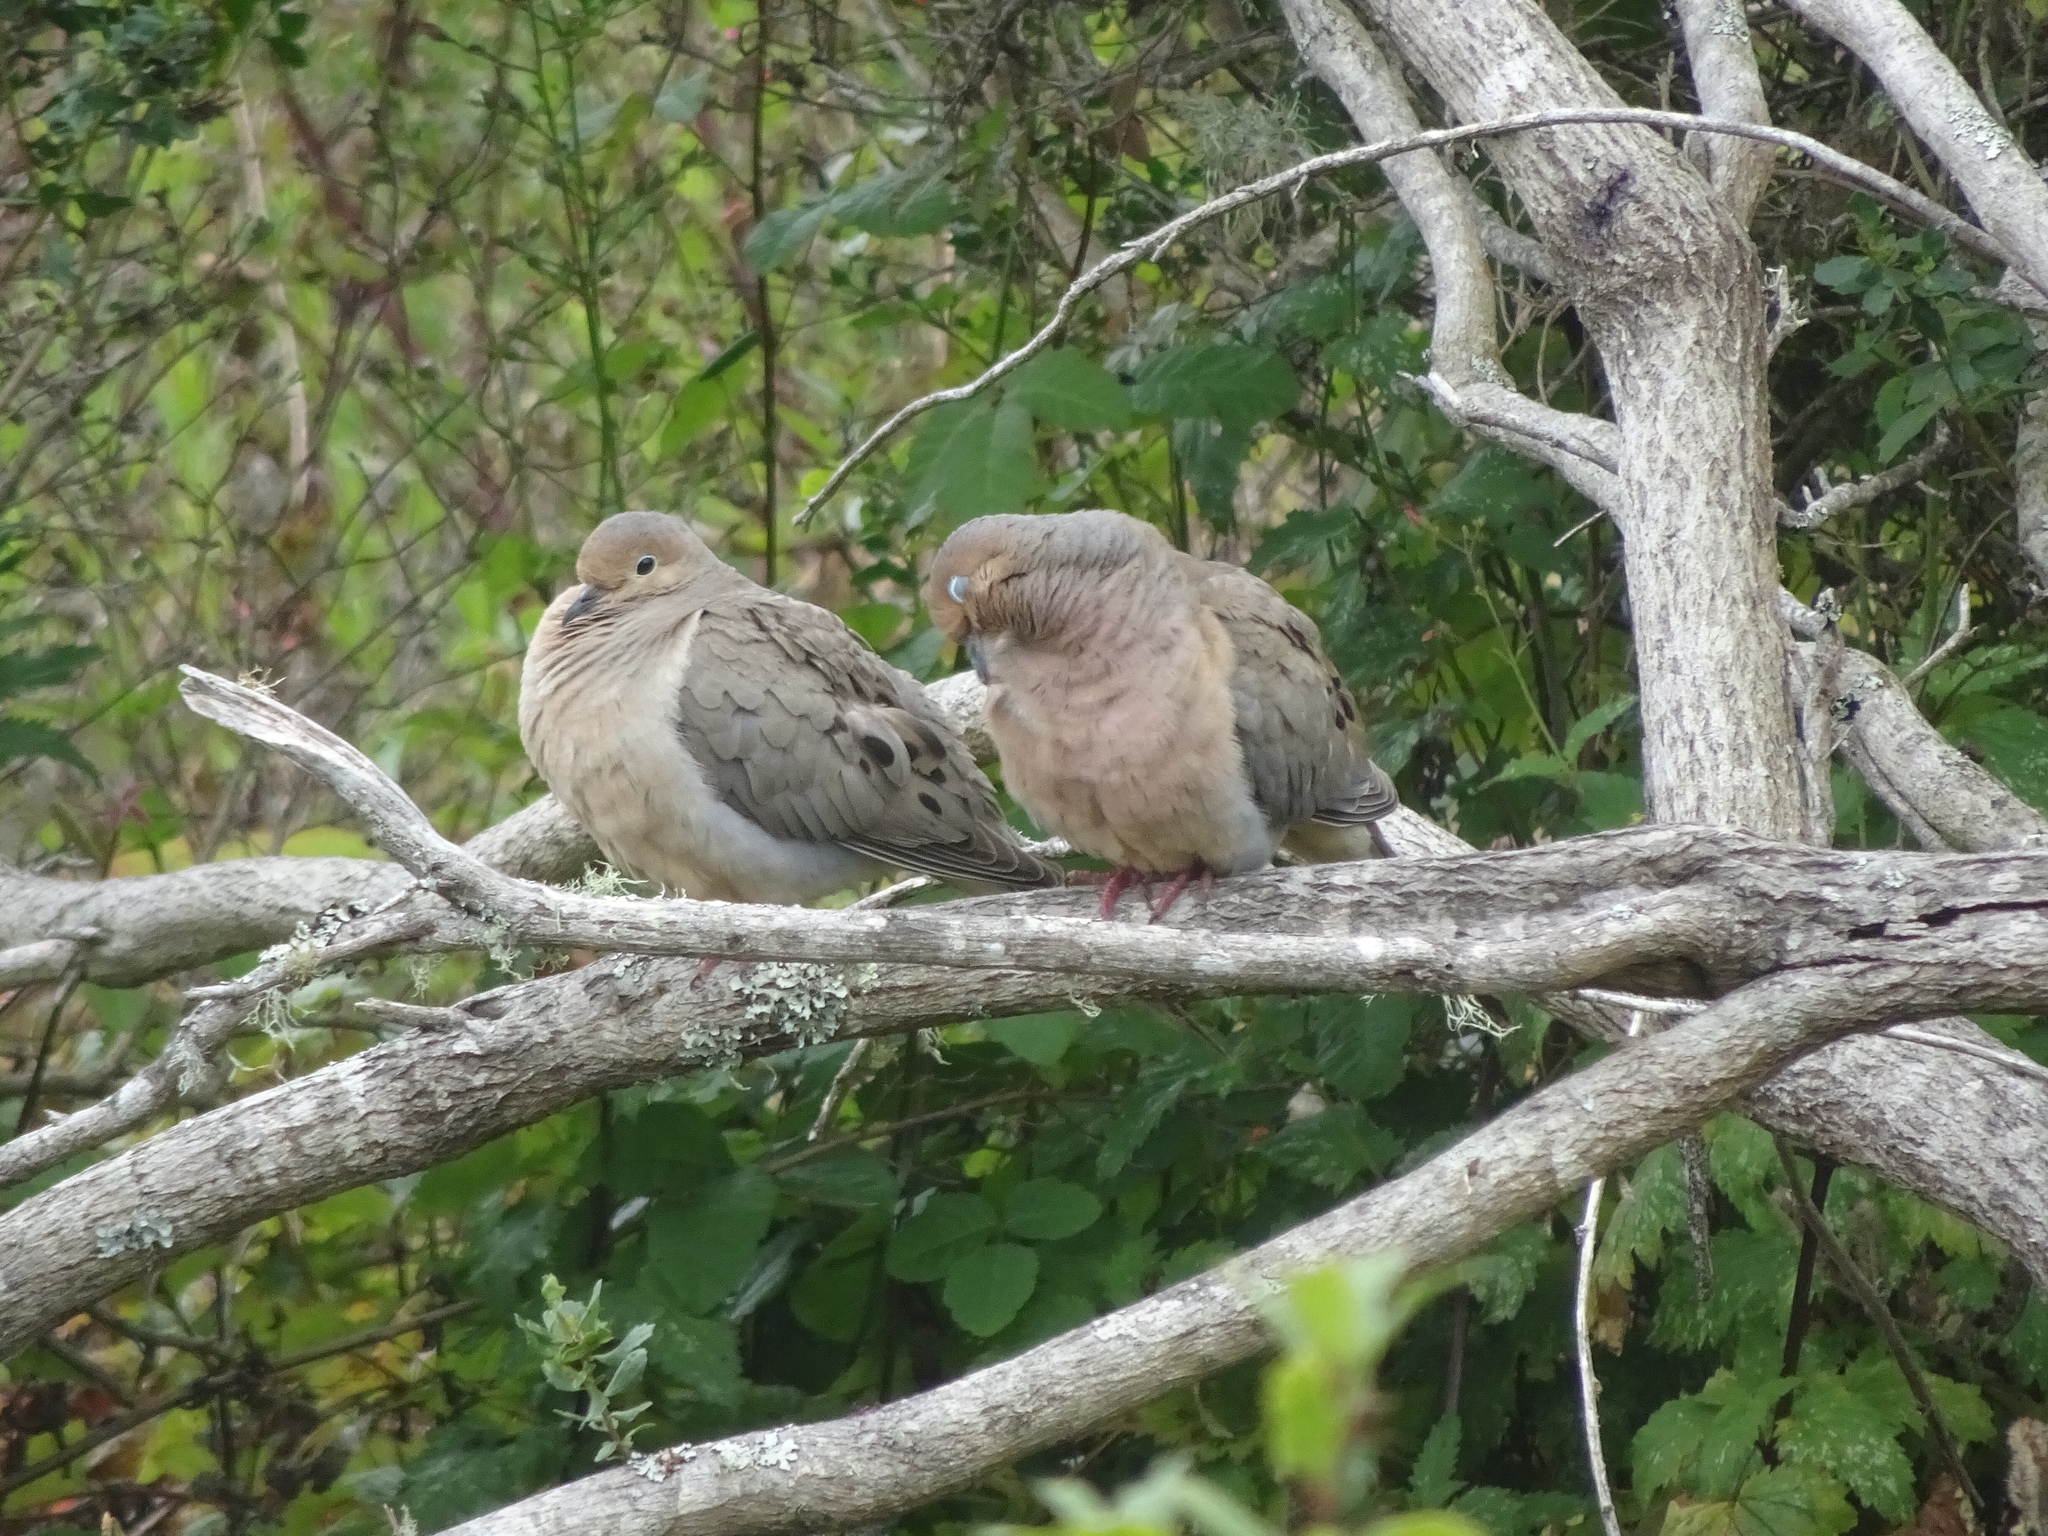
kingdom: Animalia
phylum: Chordata
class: Aves
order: Columbiformes
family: Columbidae
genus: Zenaida
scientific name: Zenaida macroura
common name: Mourning dove
